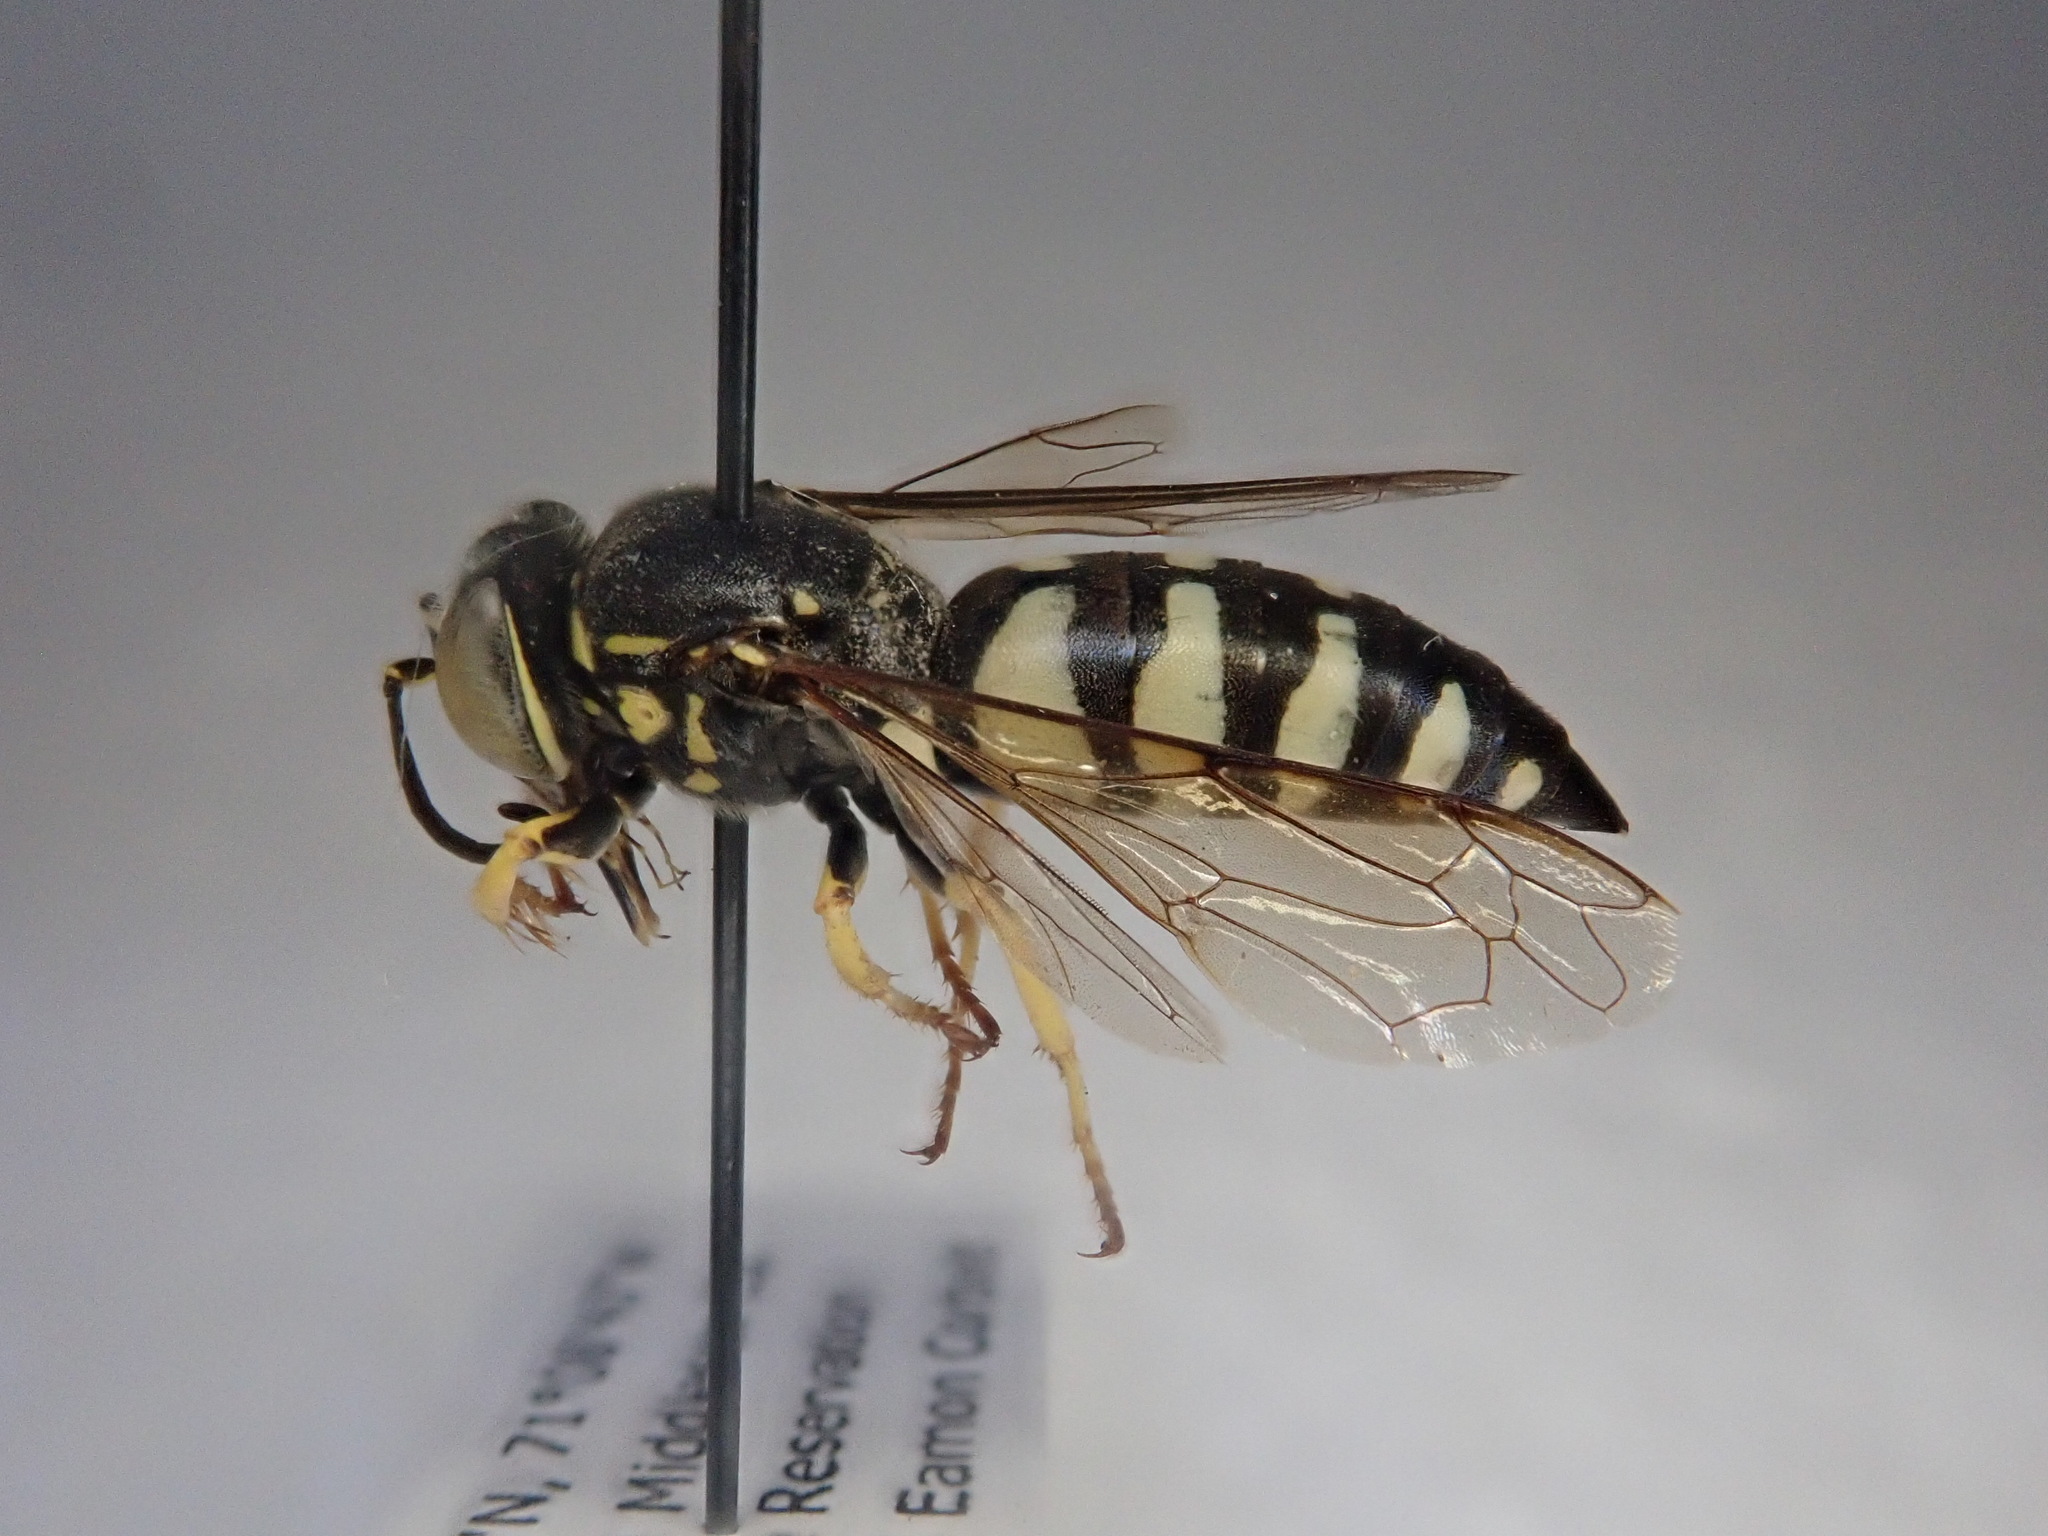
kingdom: Animalia
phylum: Arthropoda
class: Insecta
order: Hymenoptera
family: Crabronidae
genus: Bicyrtes
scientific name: Bicyrtes quadrifasciatus
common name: Four-banded stink bug hunter wasp
